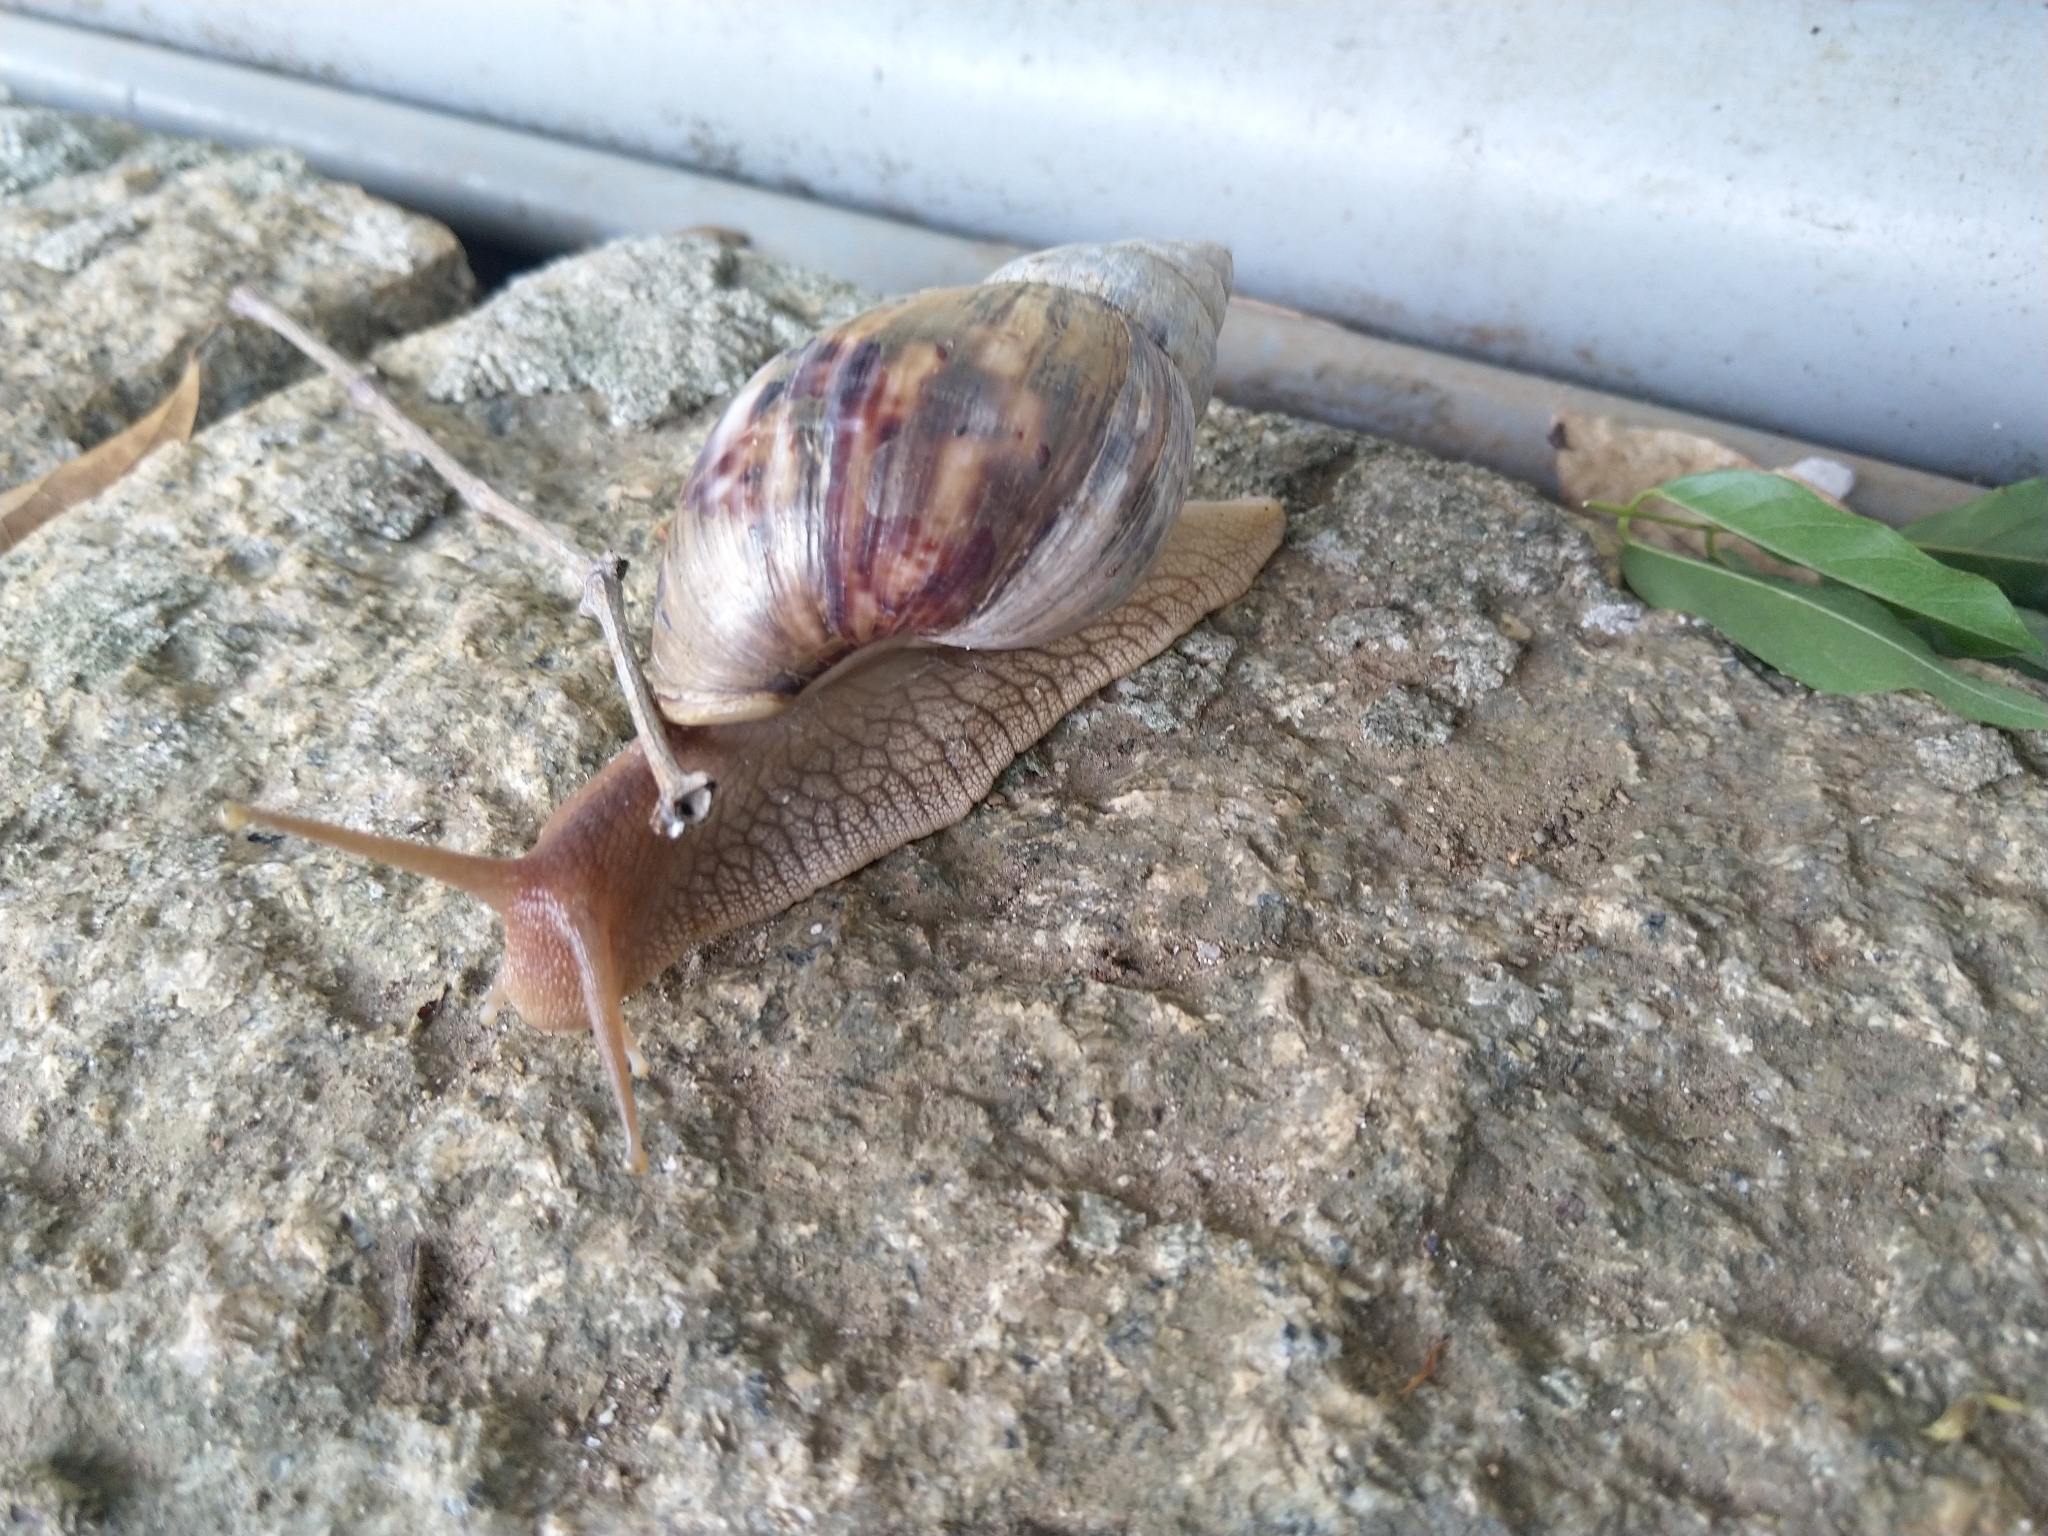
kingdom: Animalia
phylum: Mollusca
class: Gastropoda
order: Stylommatophora
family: Achatinidae
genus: Lissachatina
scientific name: Lissachatina immaculata
